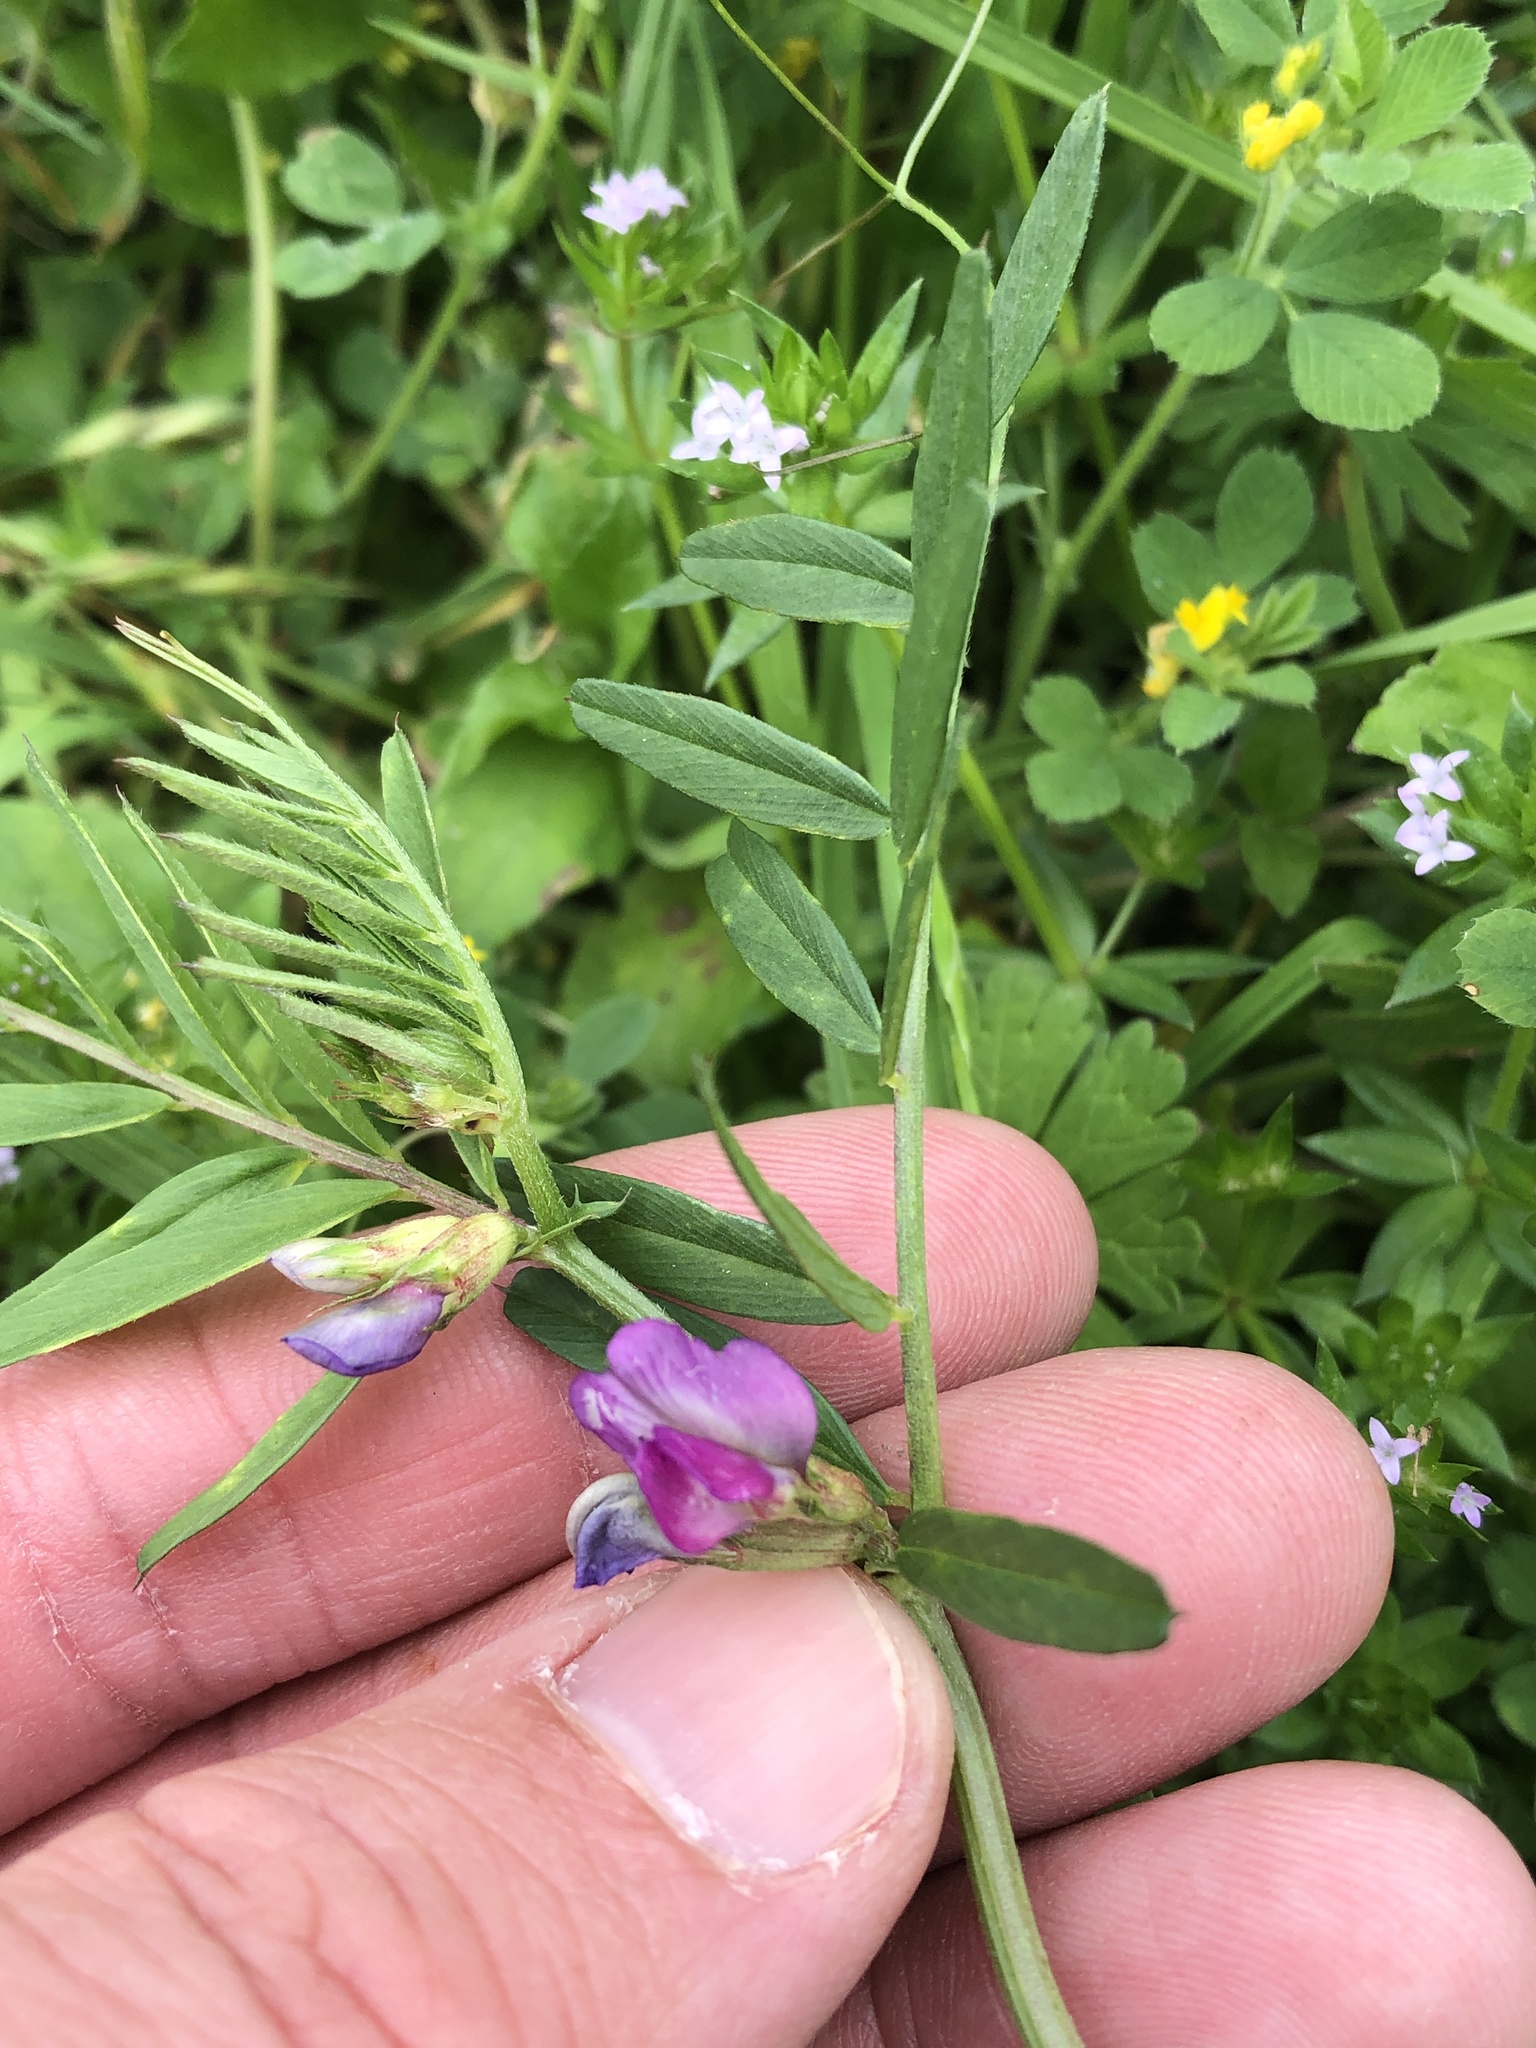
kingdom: Plantae
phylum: Tracheophyta
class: Magnoliopsida
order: Fabales
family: Fabaceae
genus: Vicia
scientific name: Vicia sativa
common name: Garden vetch
